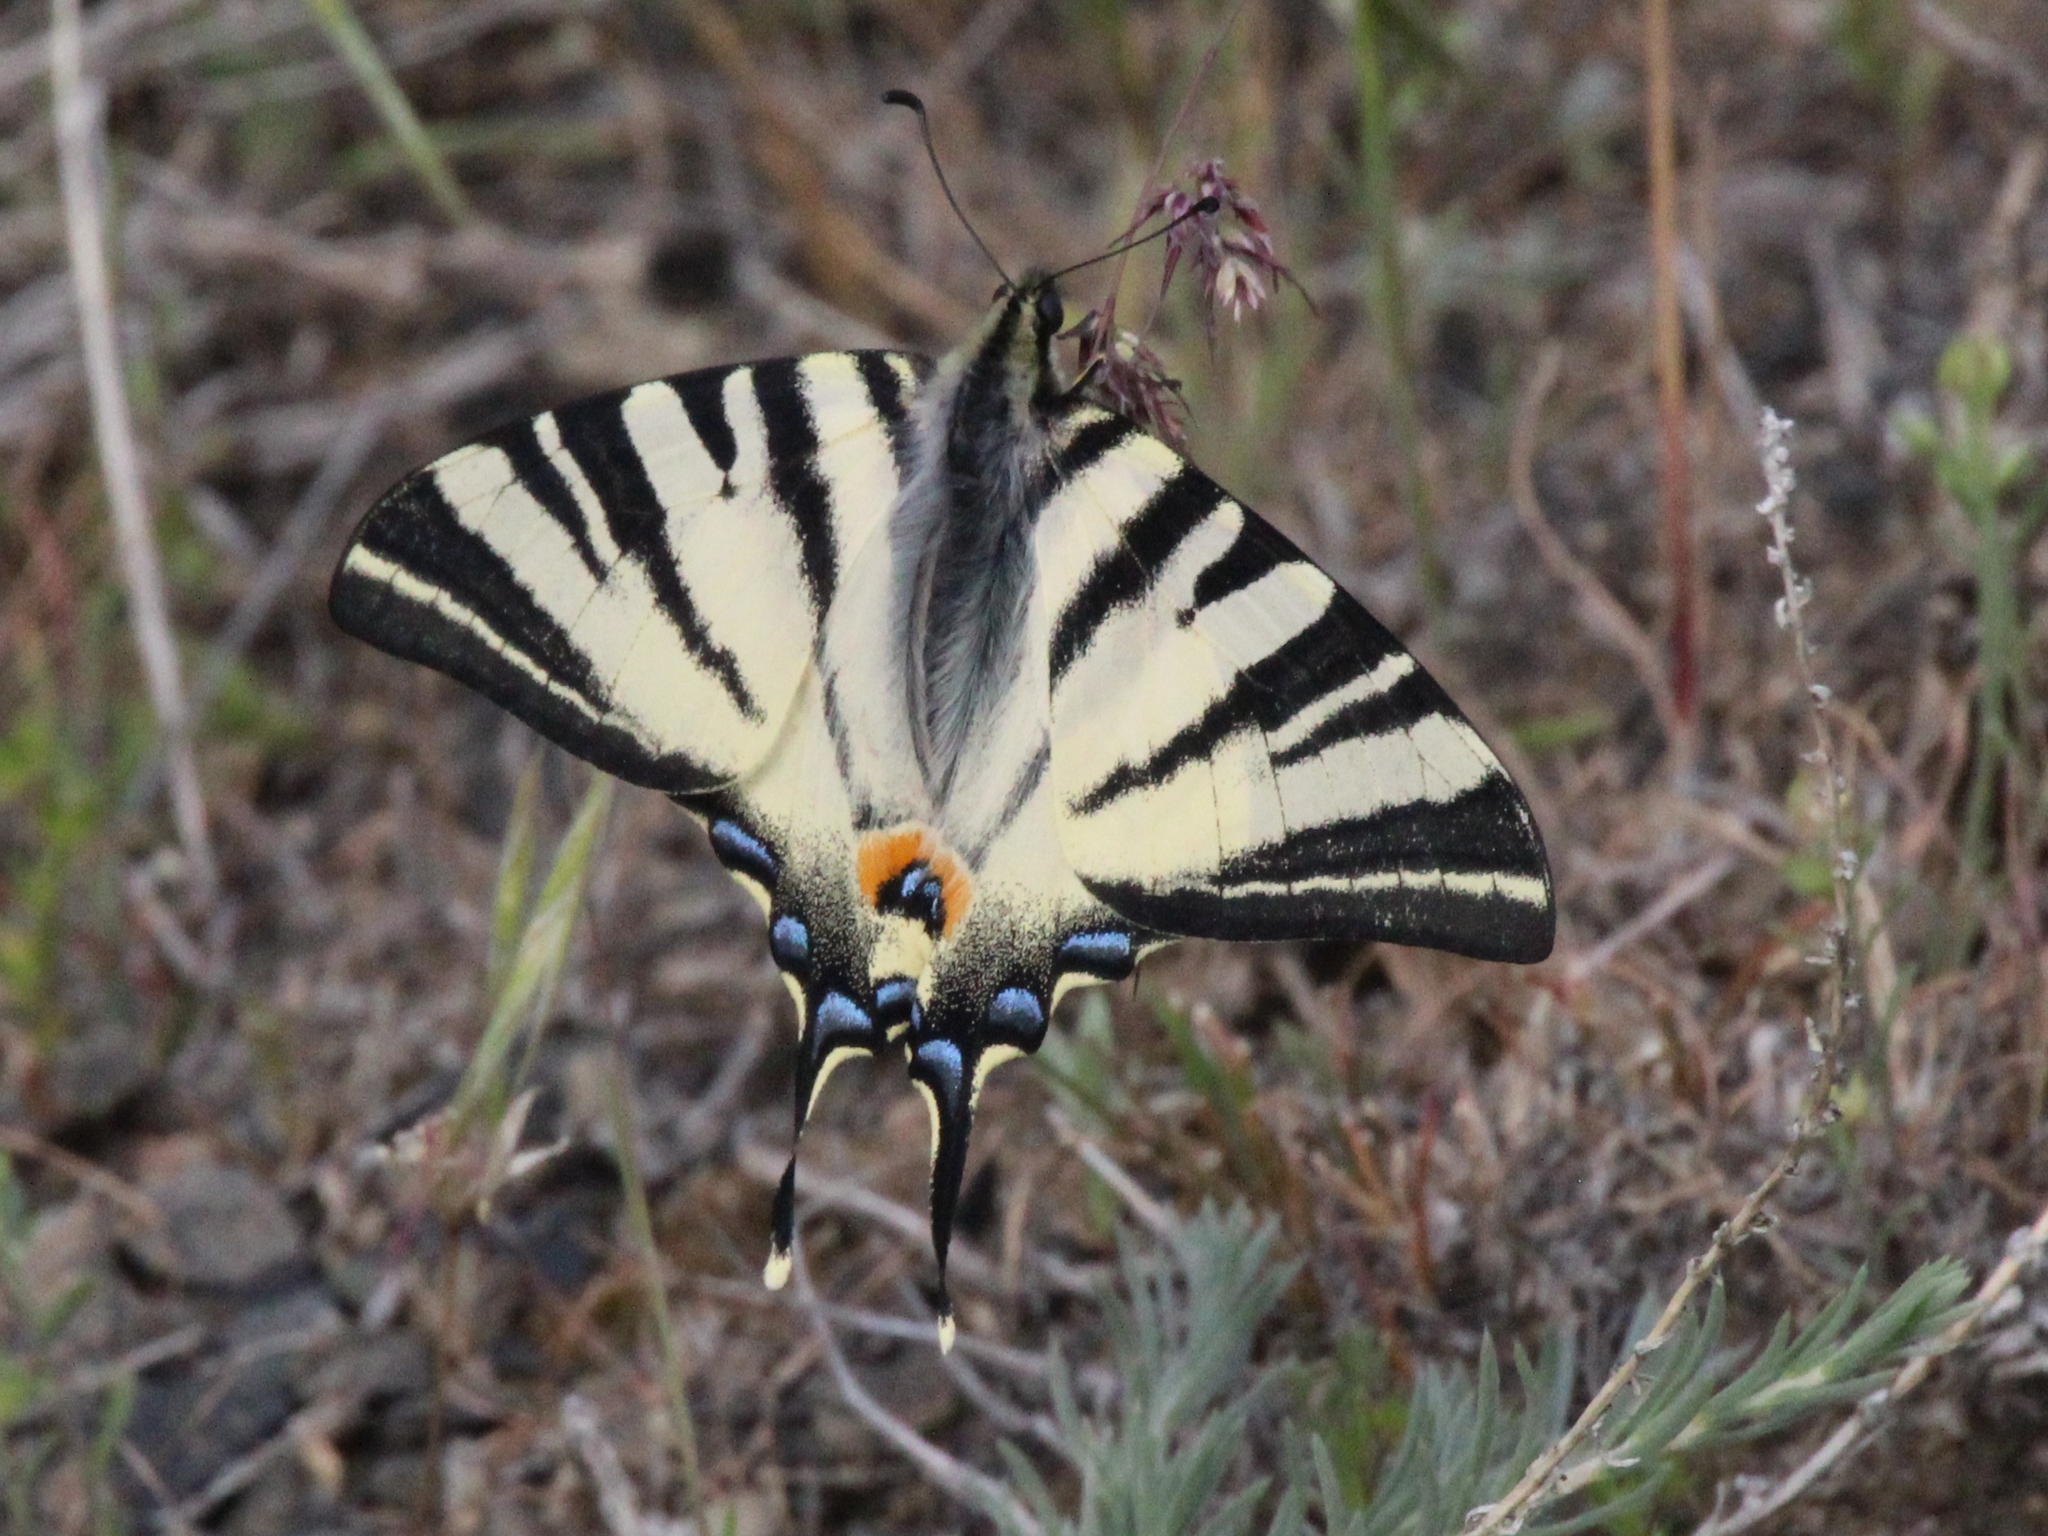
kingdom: Animalia
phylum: Arthropoda
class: Insecta
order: Lepidoptera
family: Papilionidae
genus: Iphiclides
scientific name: Iphiclides podalirius
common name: Scarce swallowtail
